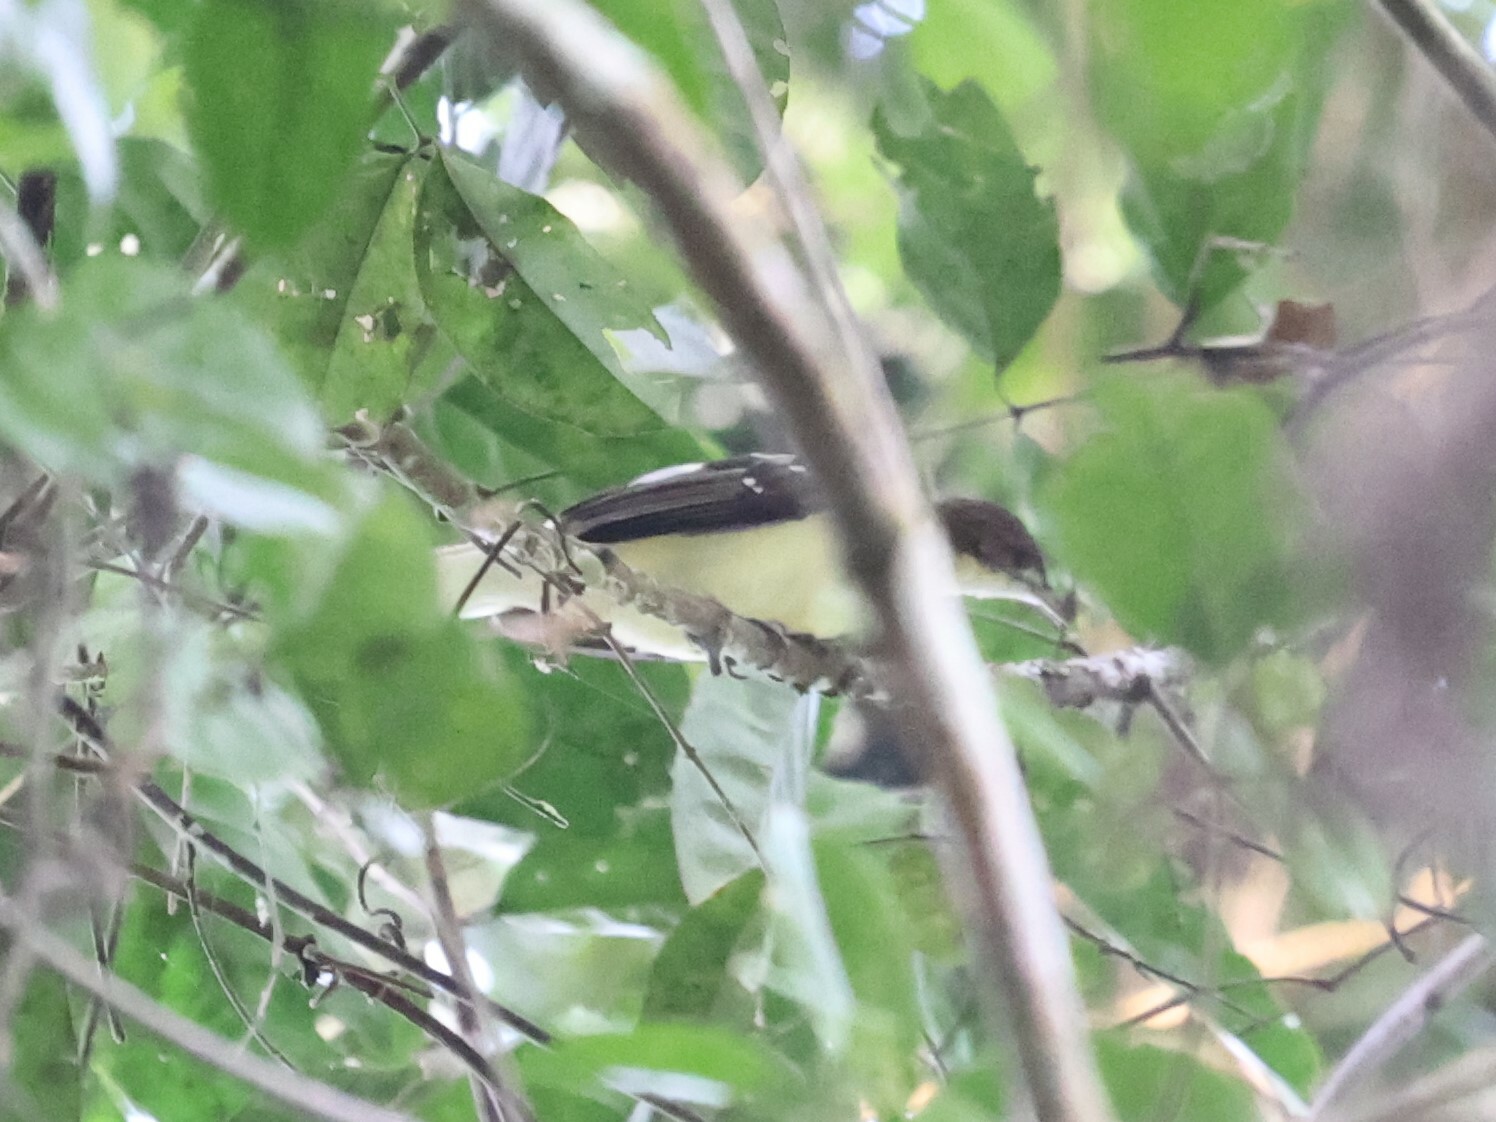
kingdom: Animalia
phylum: Chordata
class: Aves
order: Passeriformes
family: Pycnonotidae
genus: Ixonotus
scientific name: Ixonotus guttatus
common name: Spotted greenbul
